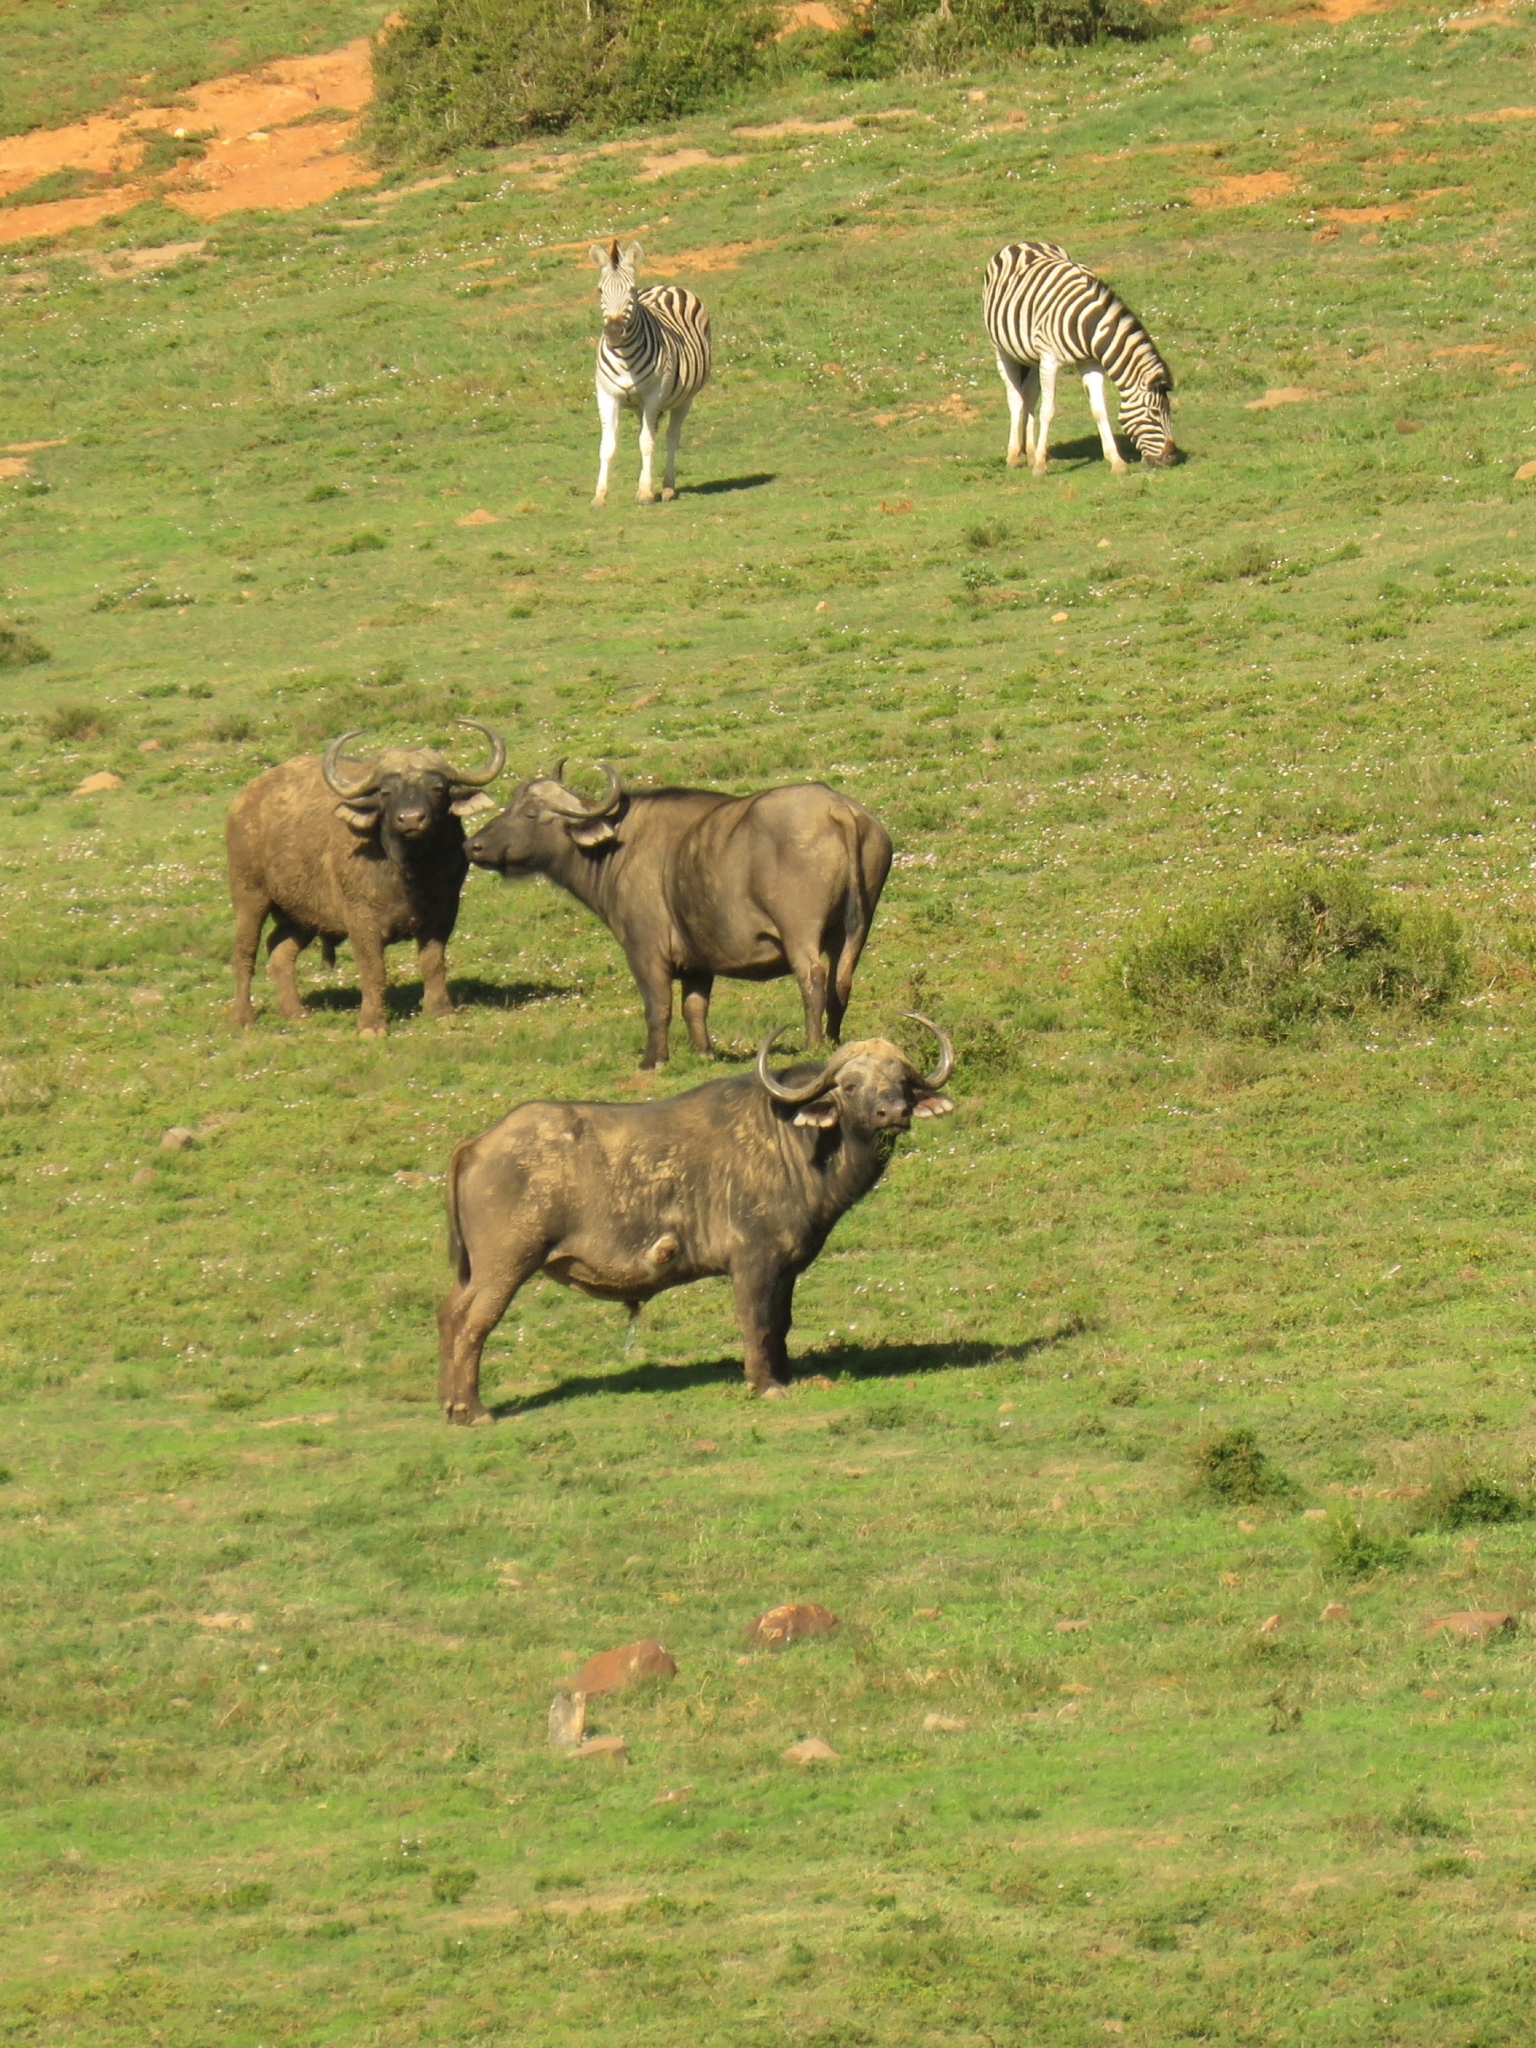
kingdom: Animalia
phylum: Chordata
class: Mammalia
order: Artiodactyla
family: Bovidae
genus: Syncerus
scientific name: Syncerus caffer
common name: African buffalo
